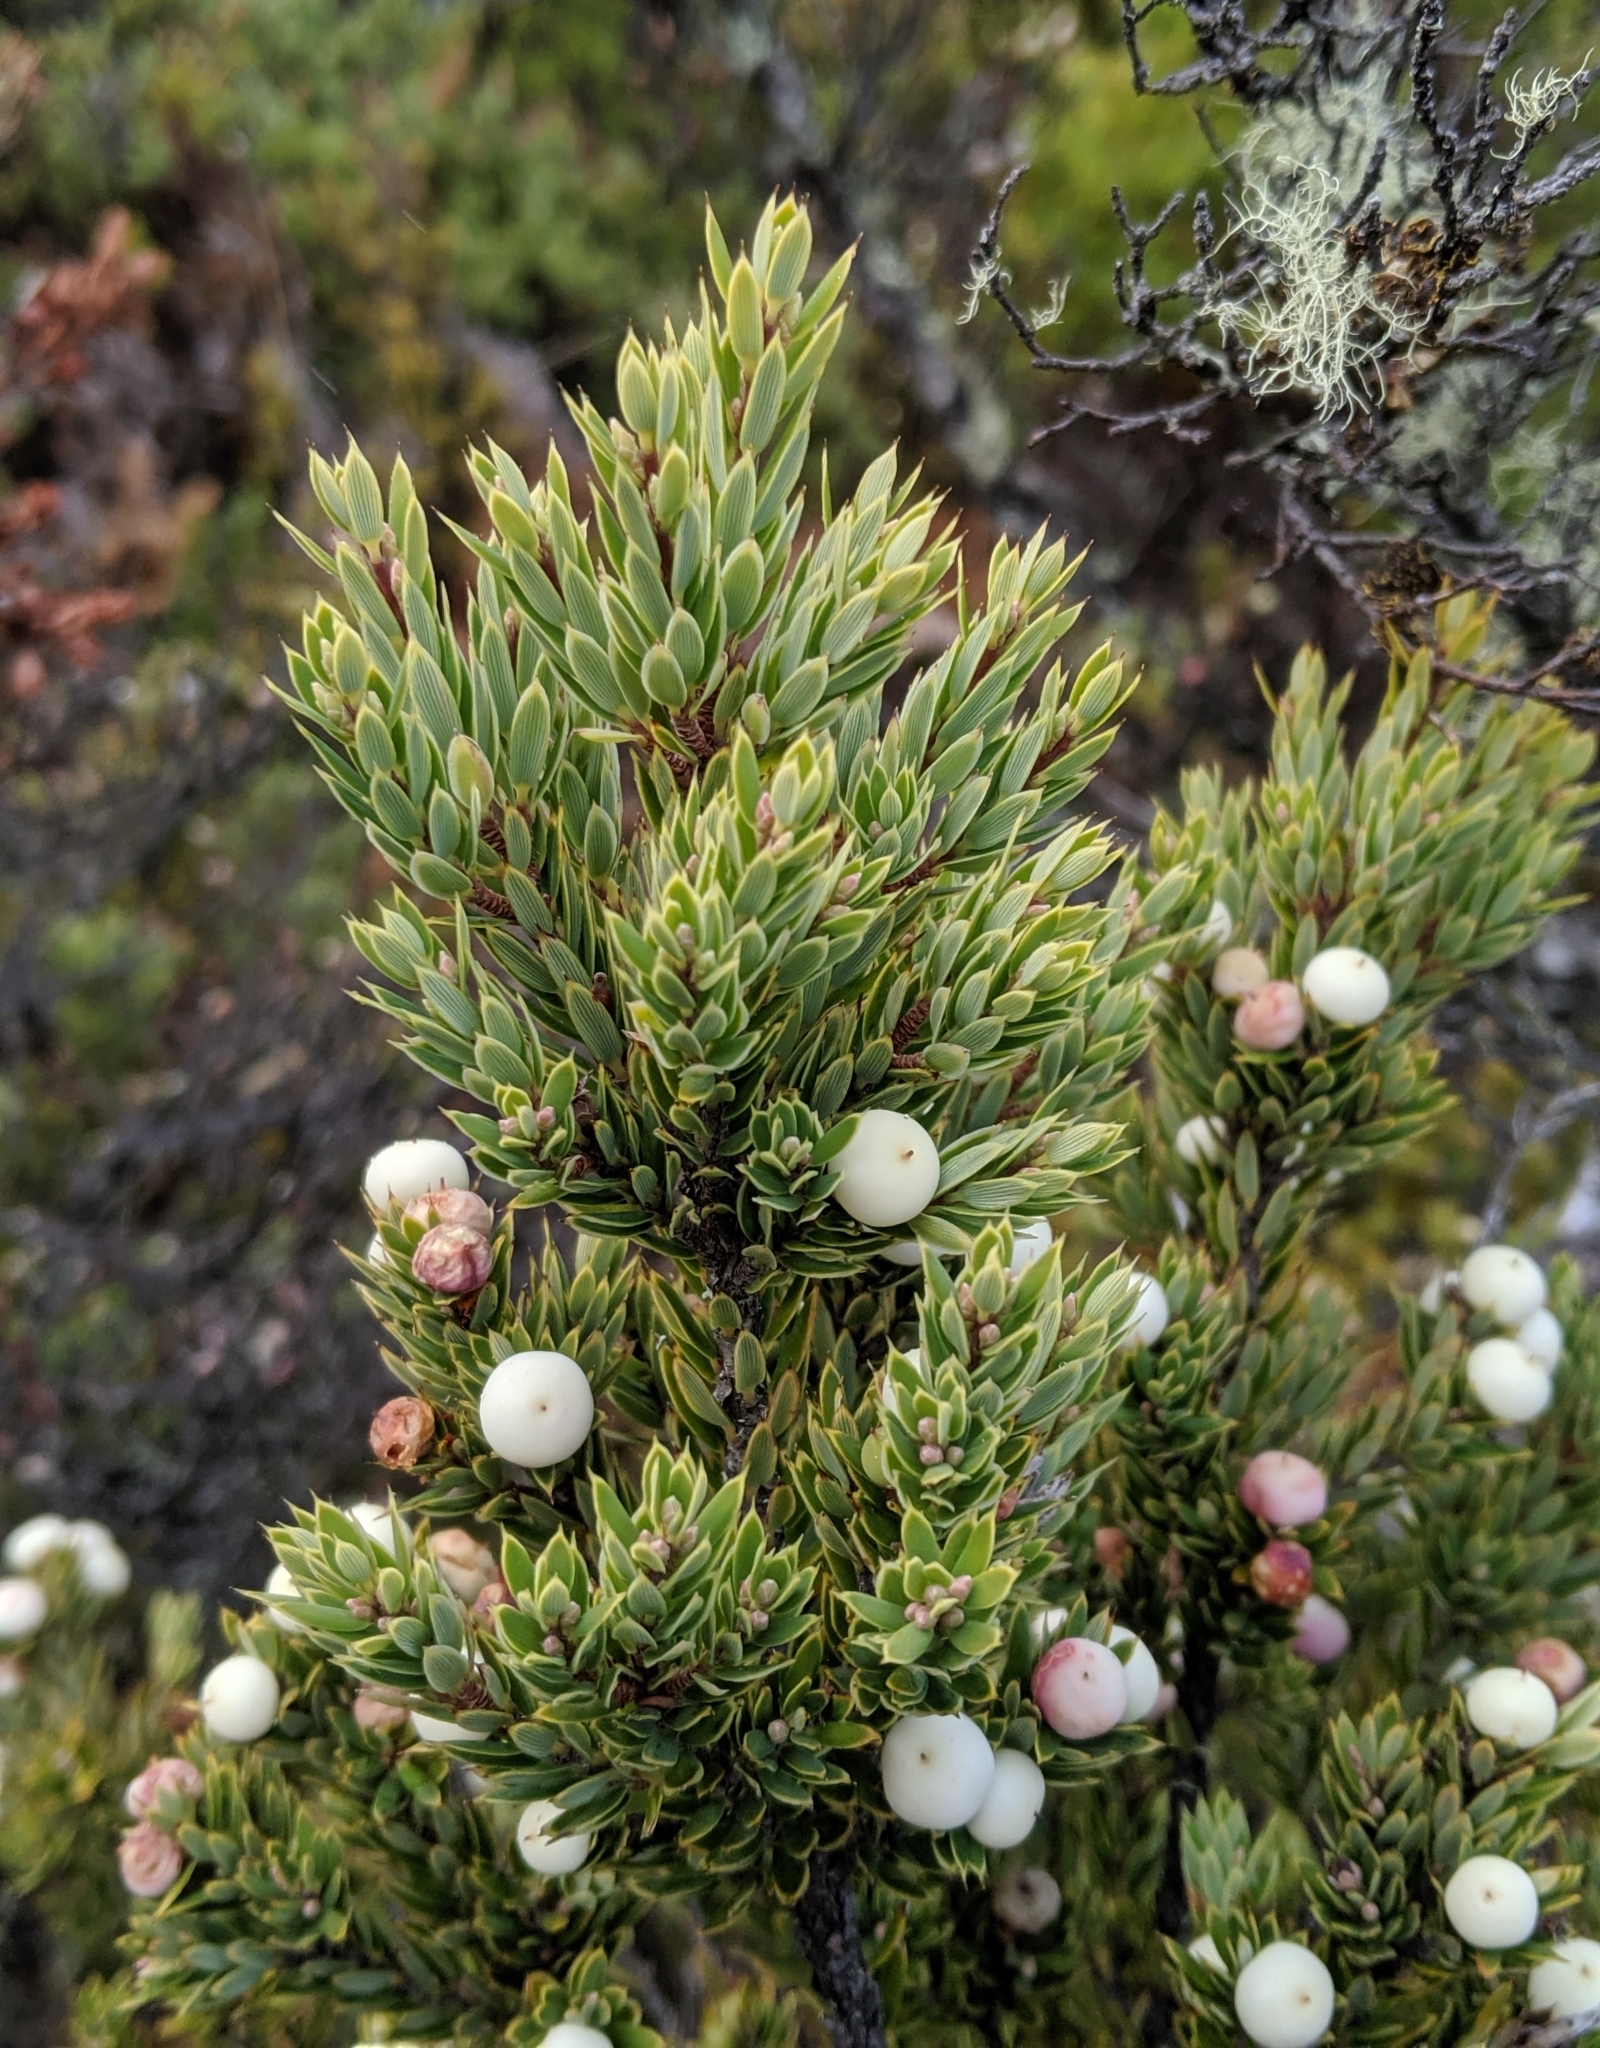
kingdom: Plantae
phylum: Tracheophyta
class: Magnoliopsida
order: Ericales
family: Ericaceae
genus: Leptecophylla
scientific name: Leptecophylla tameiameiae
